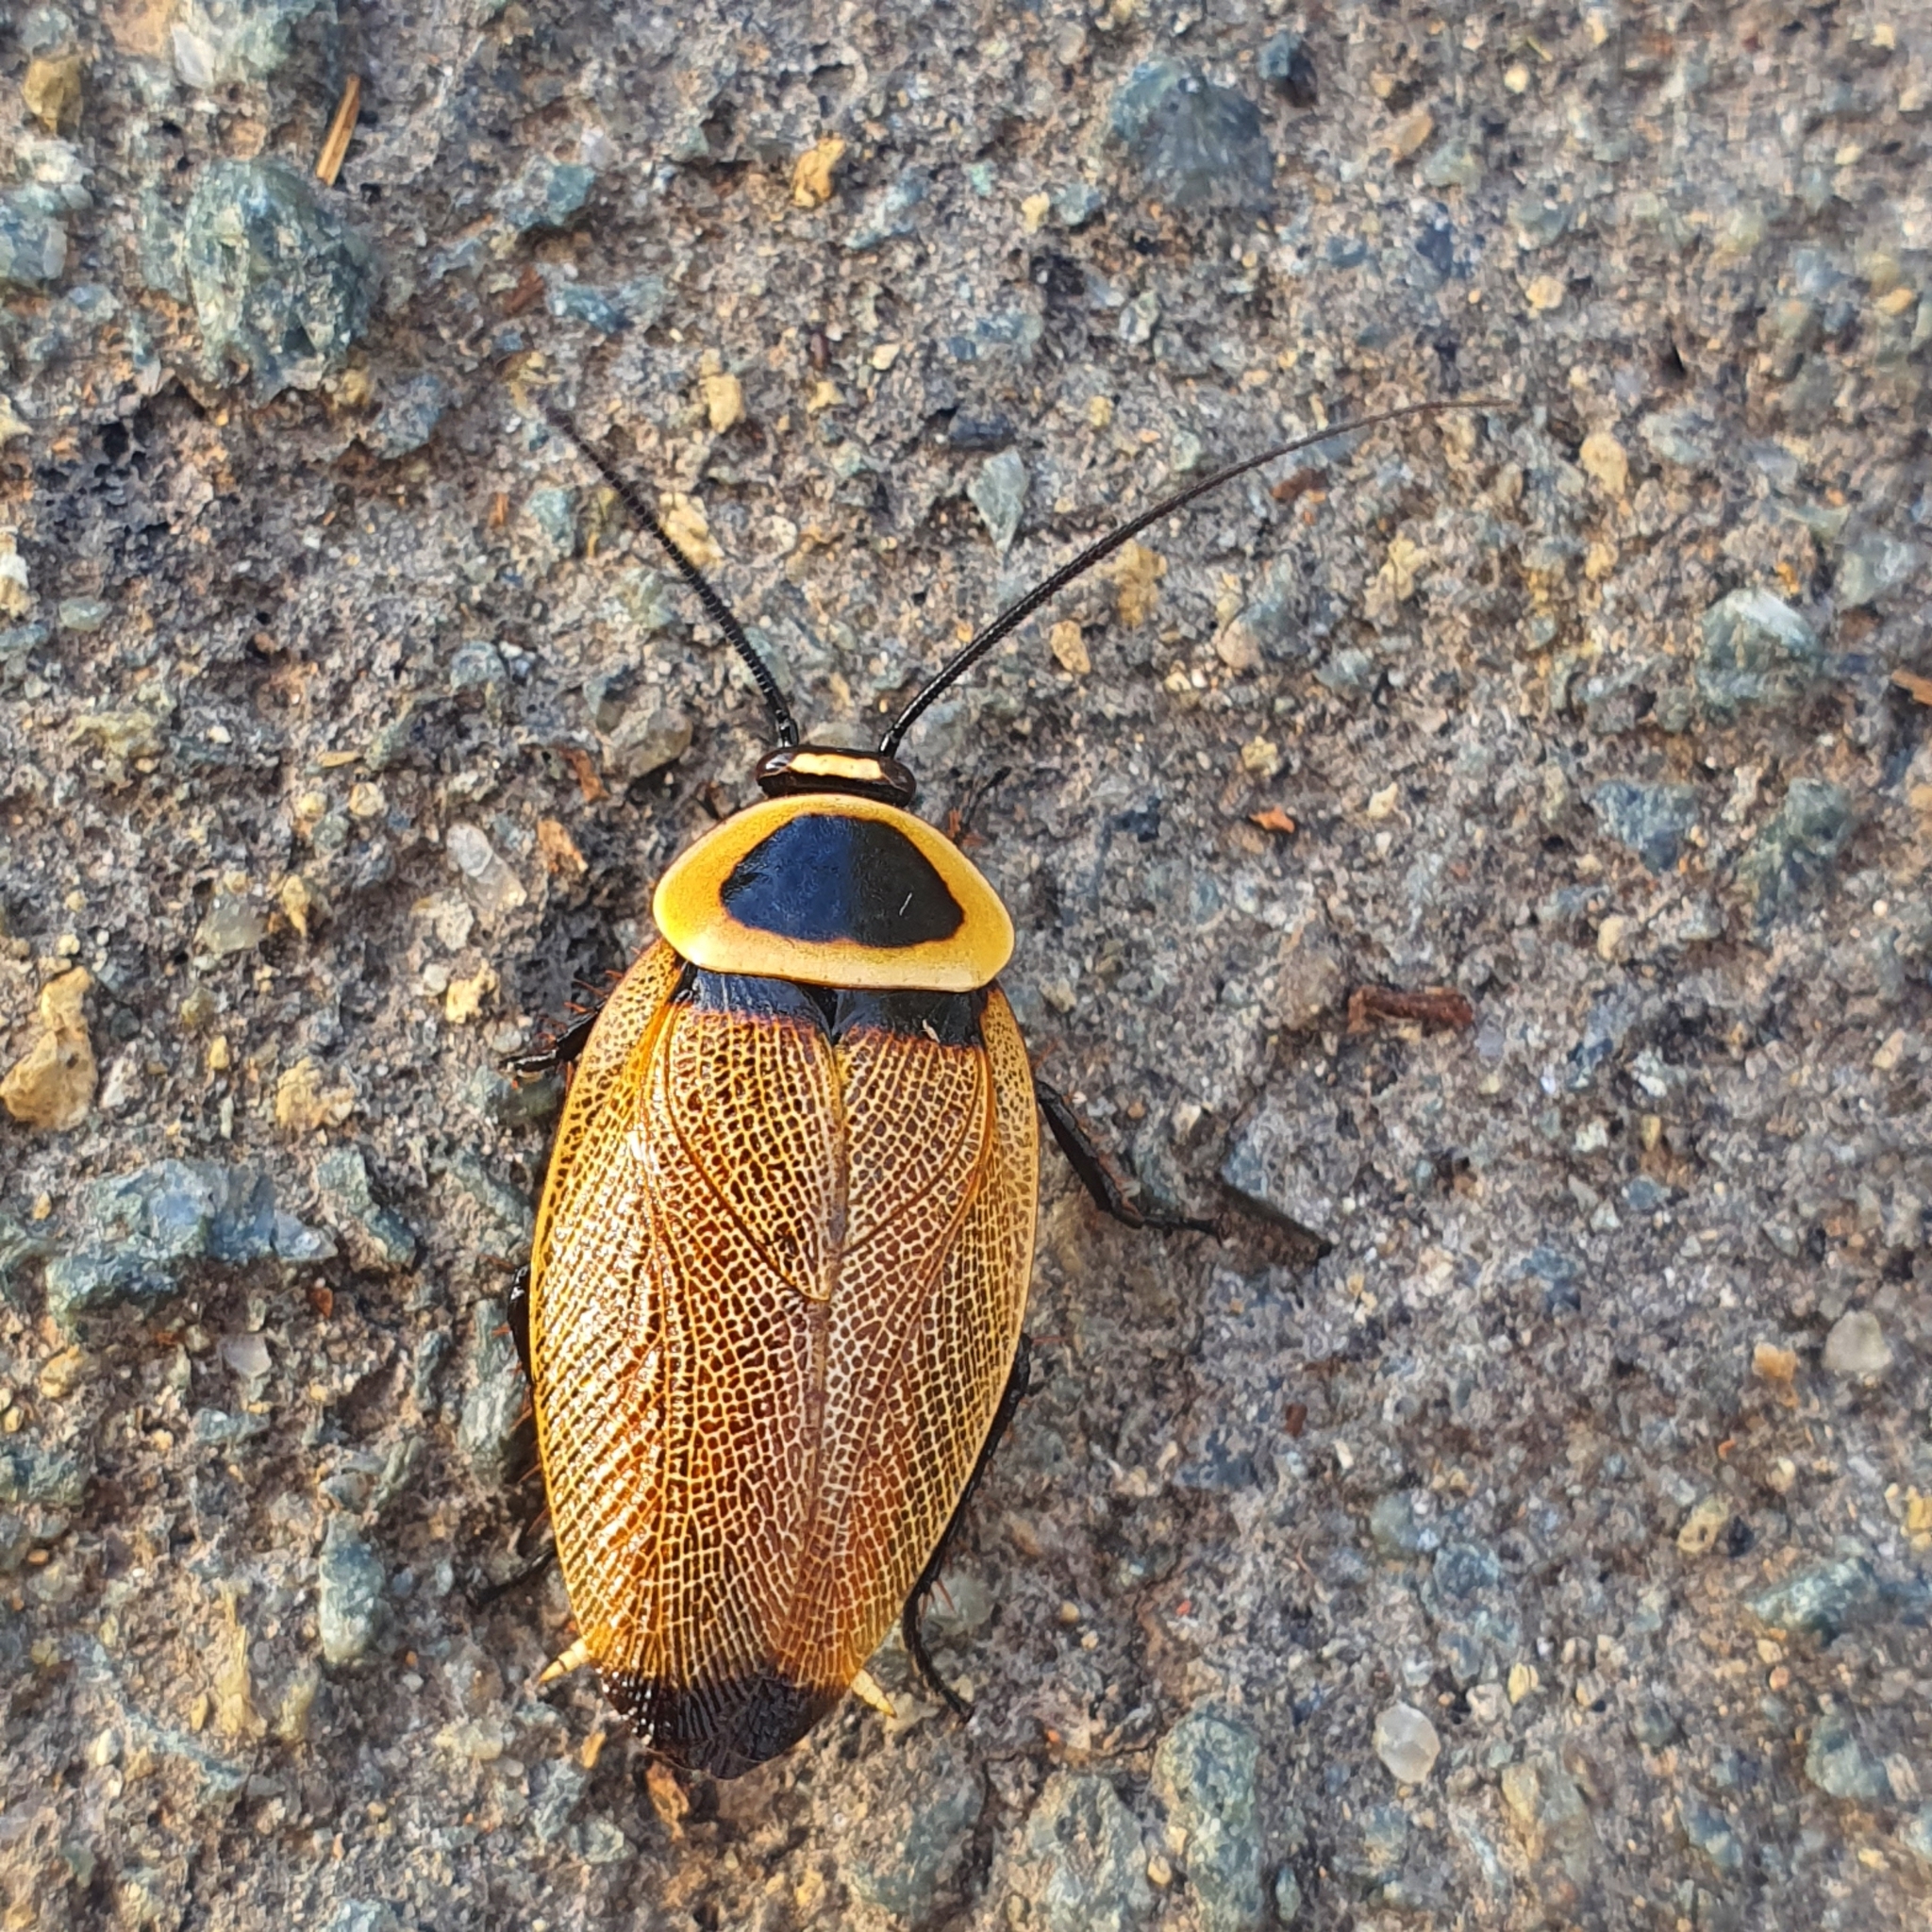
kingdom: Animalia
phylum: Arthropoda
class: Insecta
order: Blattodea
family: Ectobiidae
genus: Ellipsidion
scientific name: Ellipsidion australe
